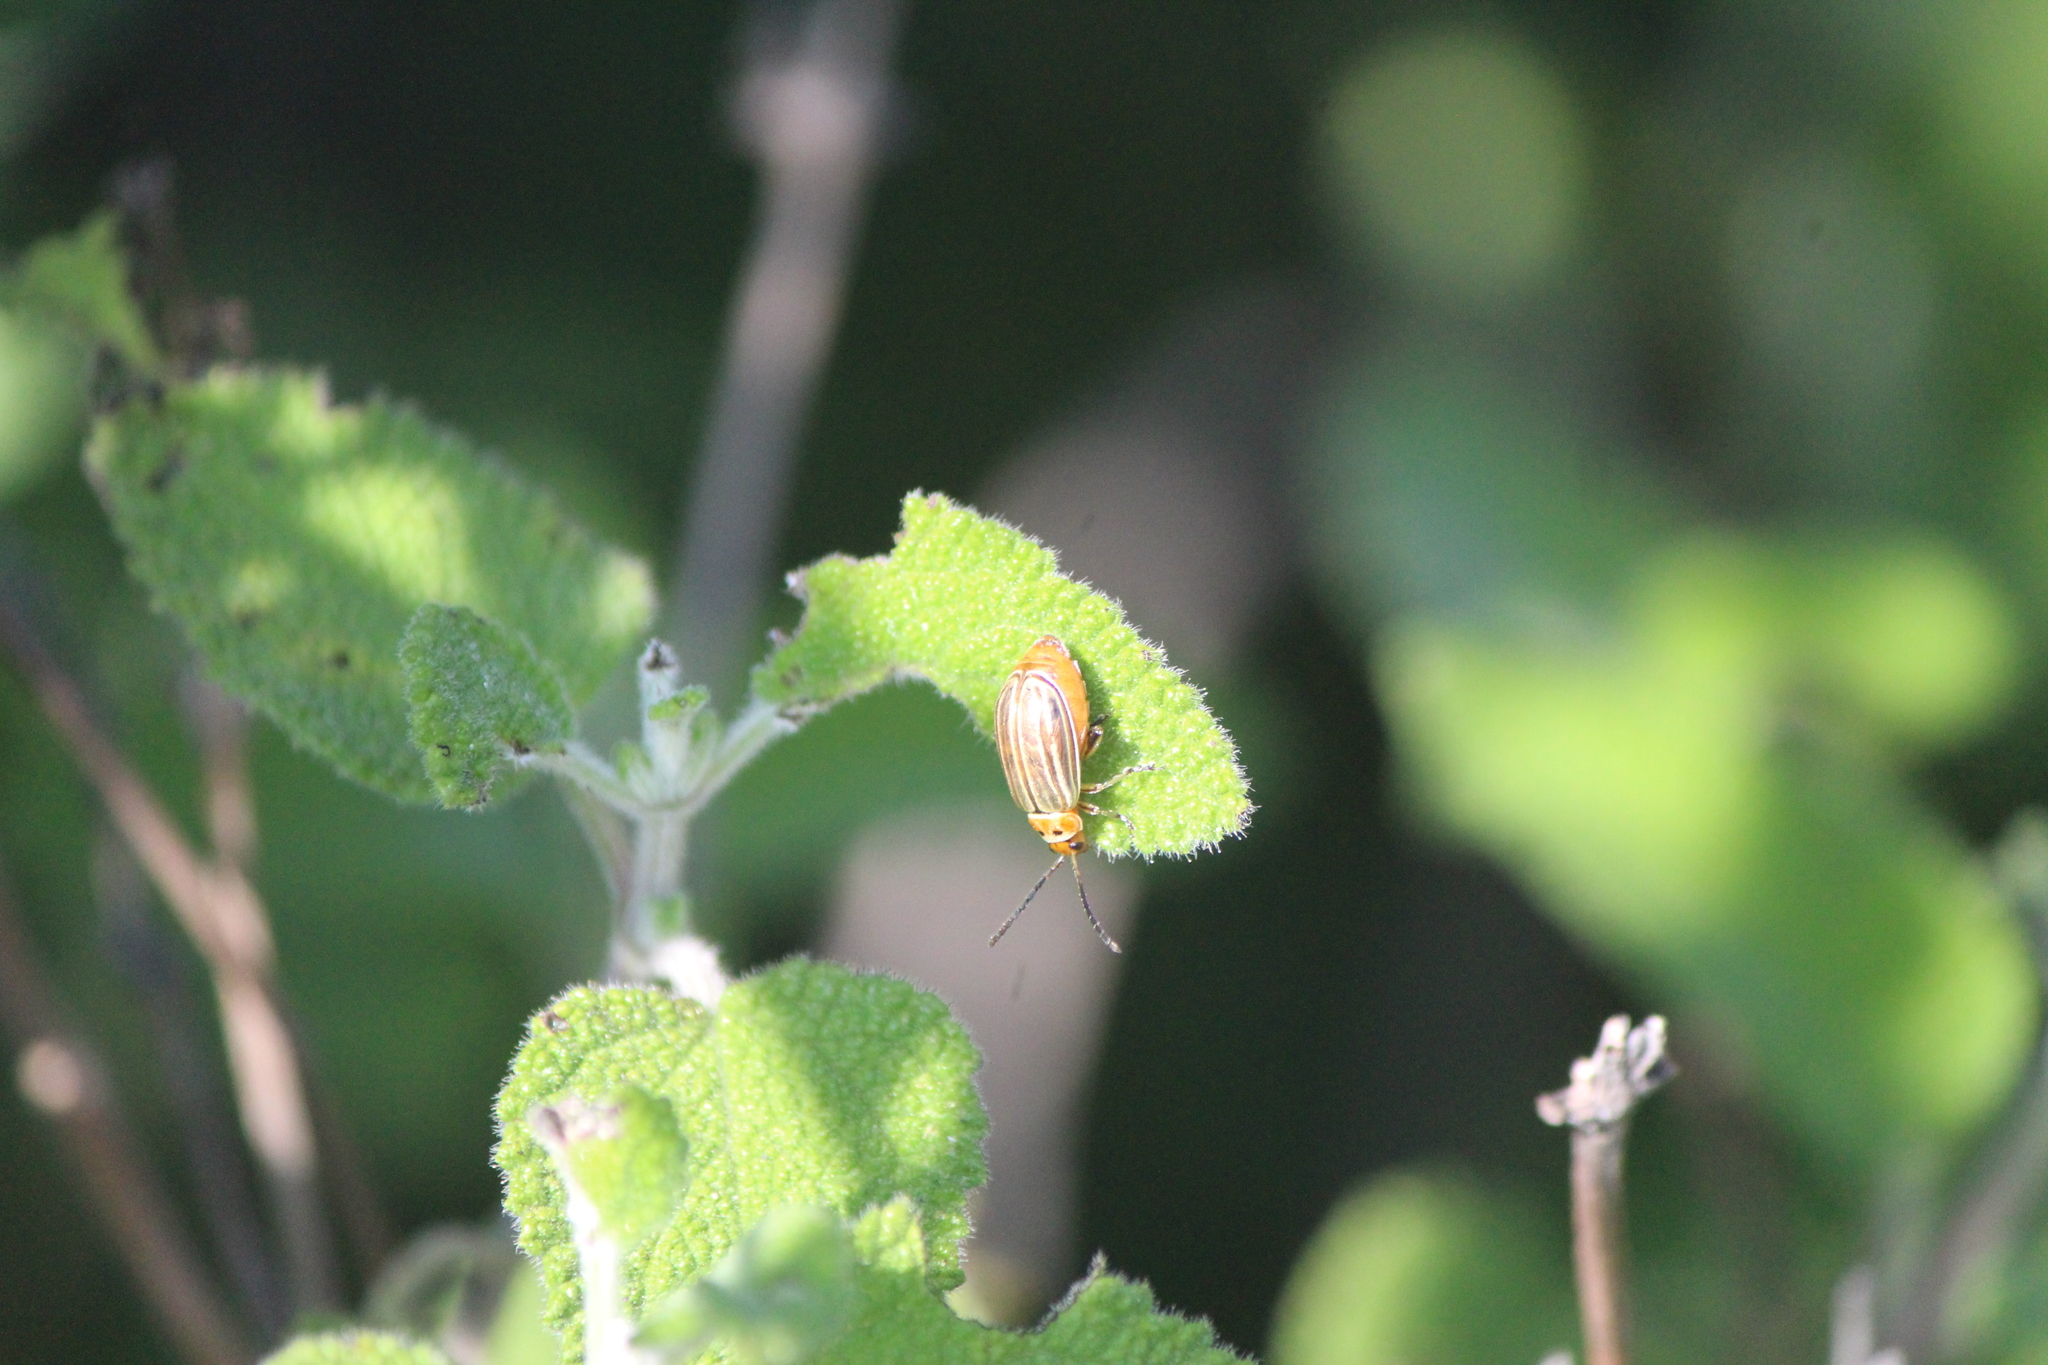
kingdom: Animalia
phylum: Arthropoda
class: Insecta
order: Coleoptera
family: Chrysomelidae
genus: Disonycha
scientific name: Disonycha figurata
